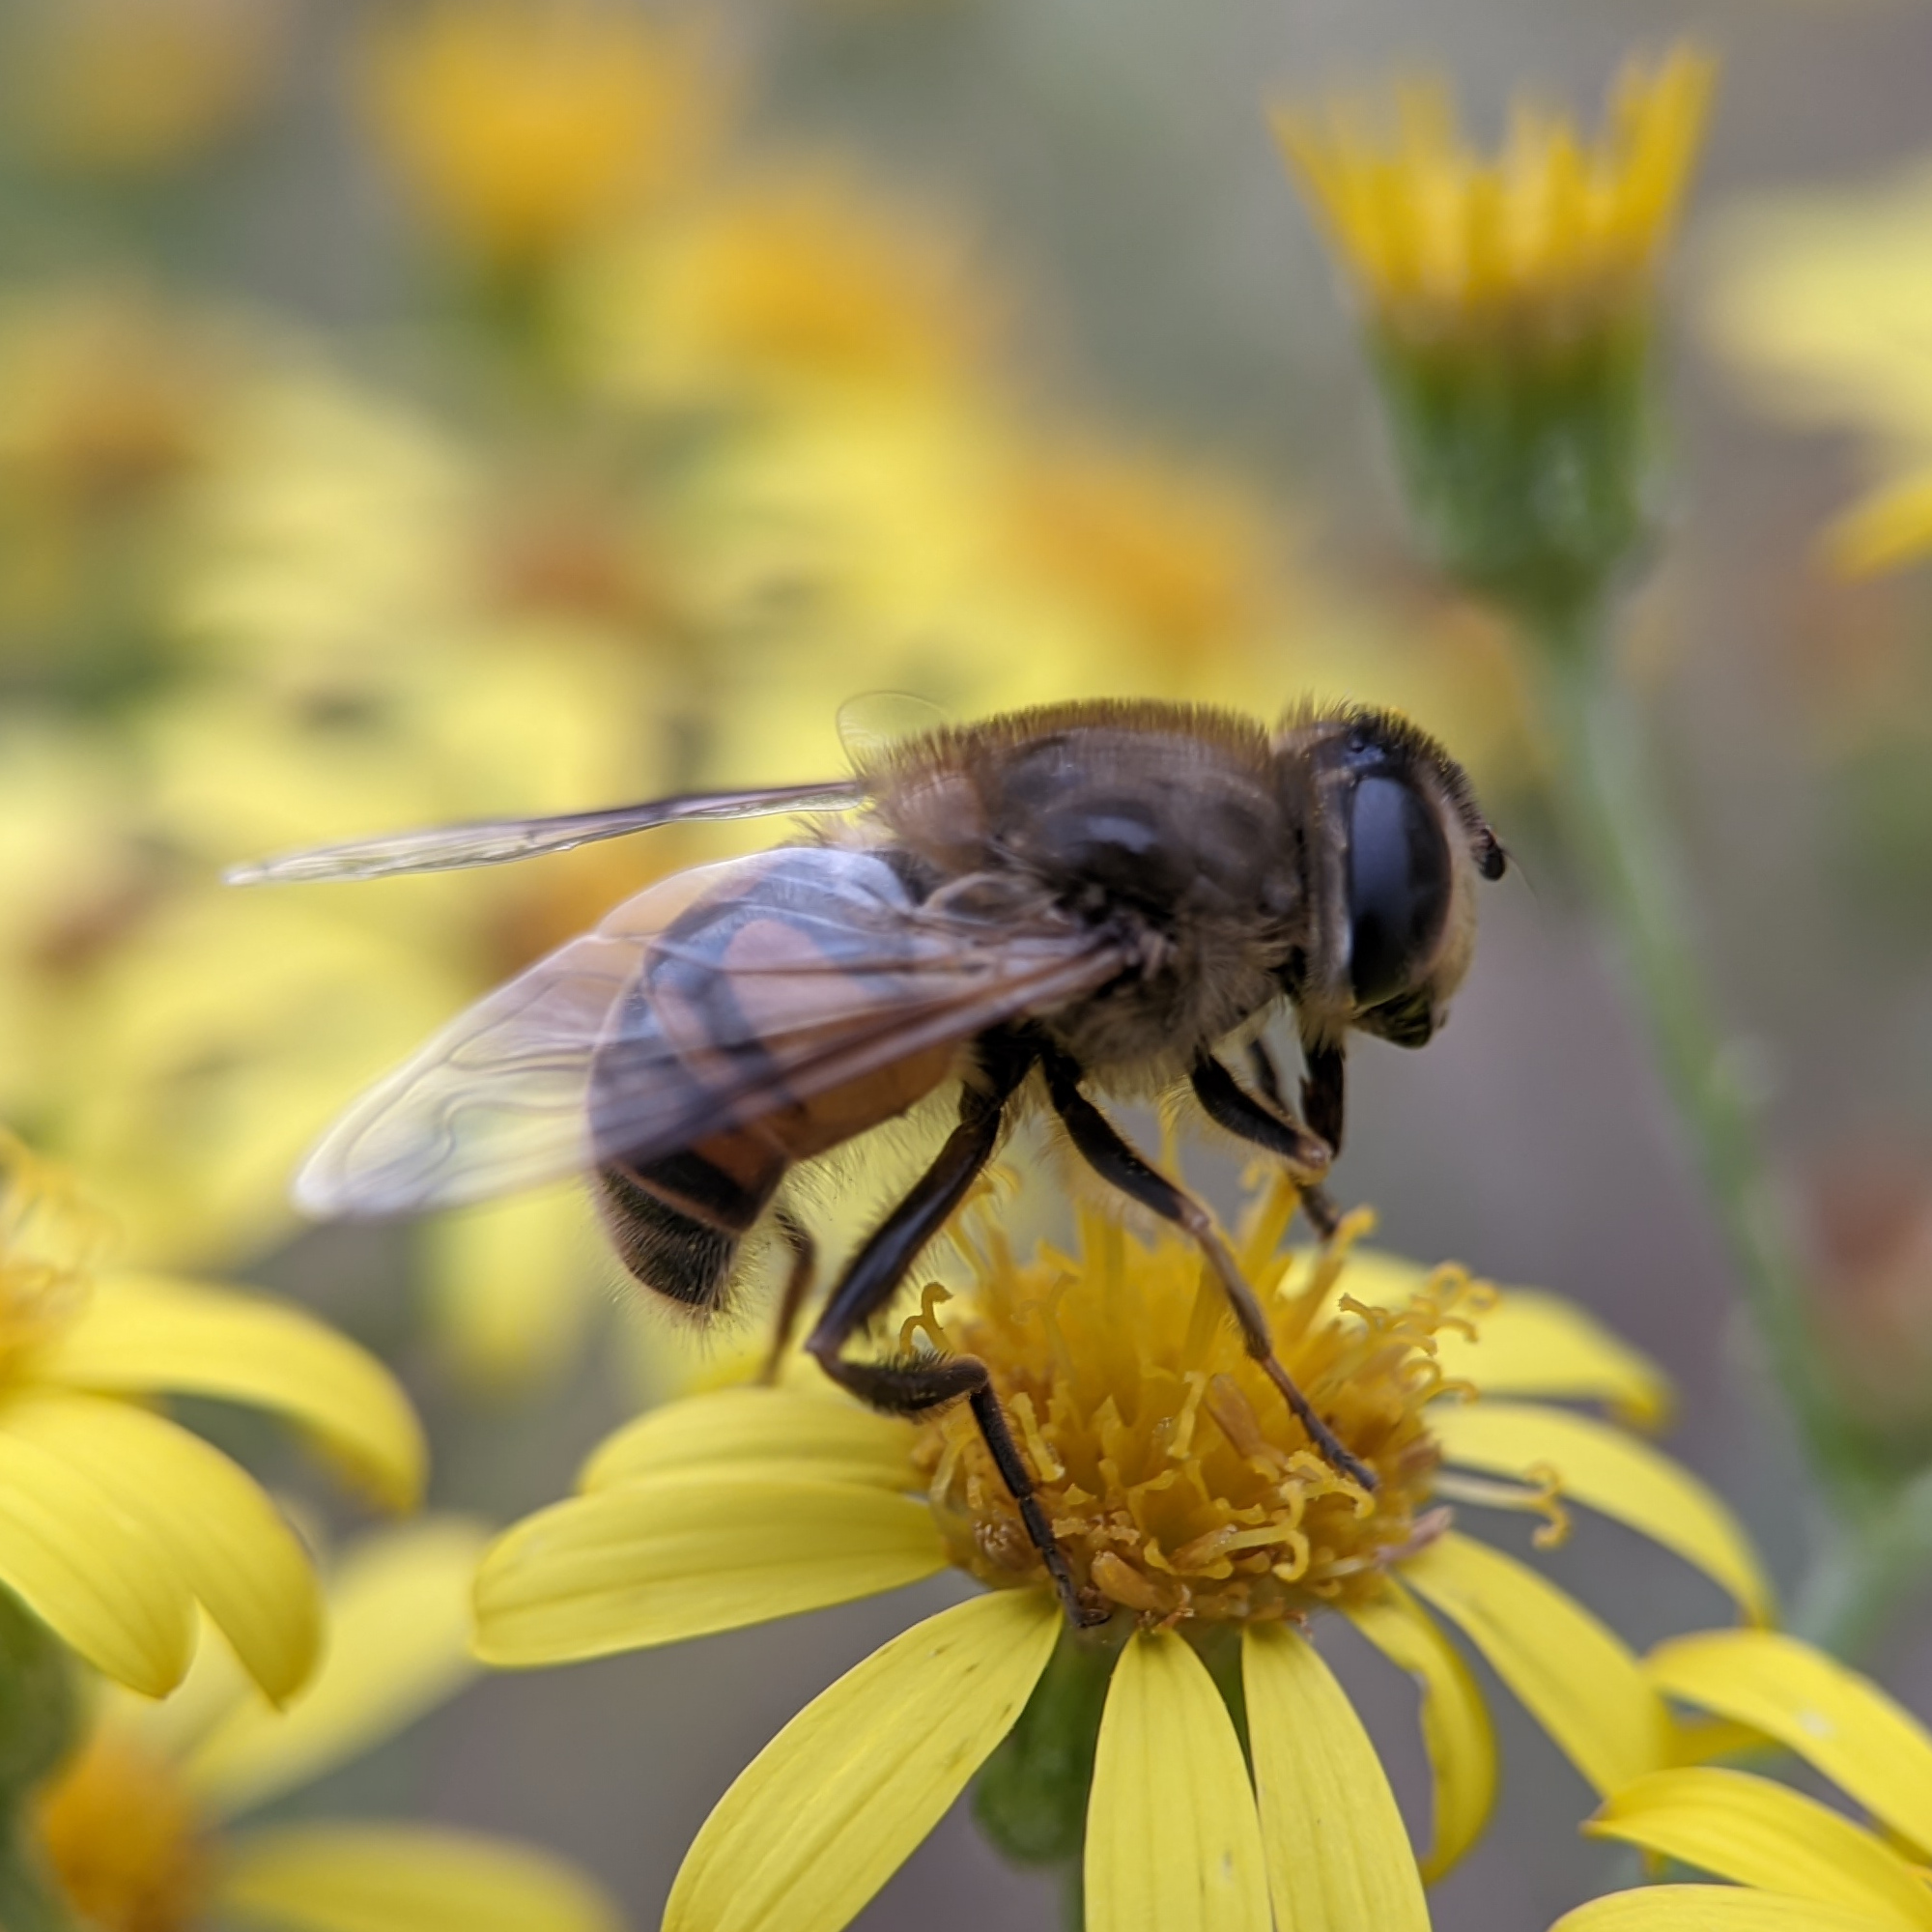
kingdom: Animalia
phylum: Arthropoda
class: Insecta
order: Diptera
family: Syrphidae
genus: Eristalis
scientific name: Eristalis tenax
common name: Drone fly
